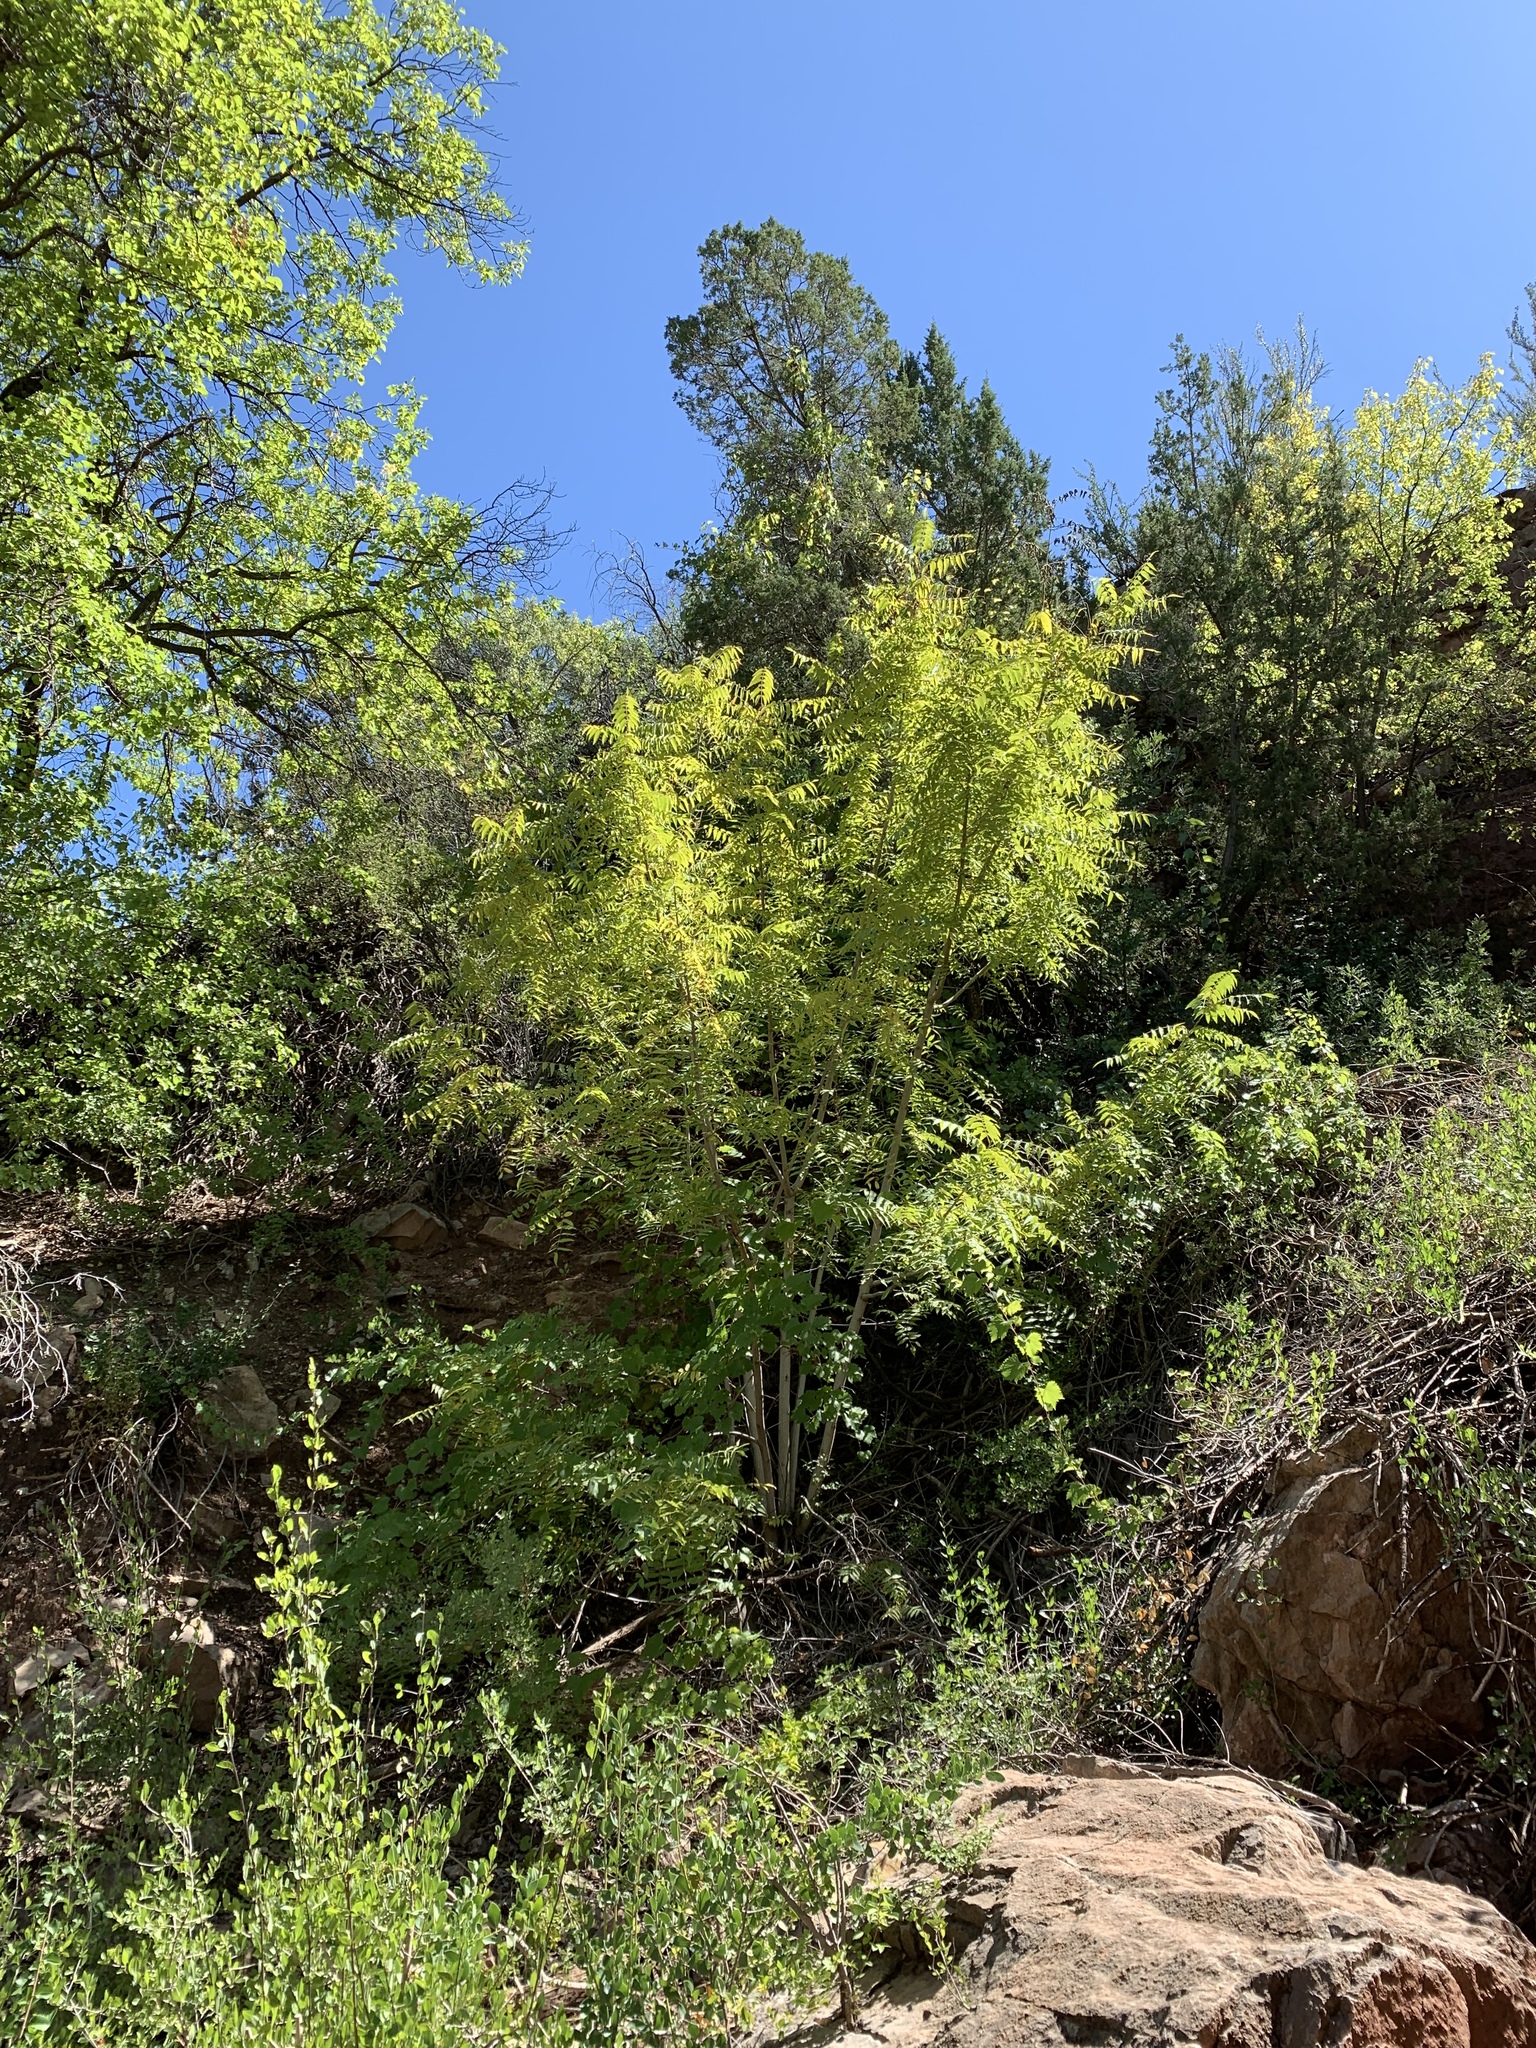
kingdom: Plantae
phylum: Tracheophyta
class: Magnoliopsida
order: Fagales
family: Juglandaceae
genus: Juglans
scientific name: Juglans major
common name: Arizona walnut
